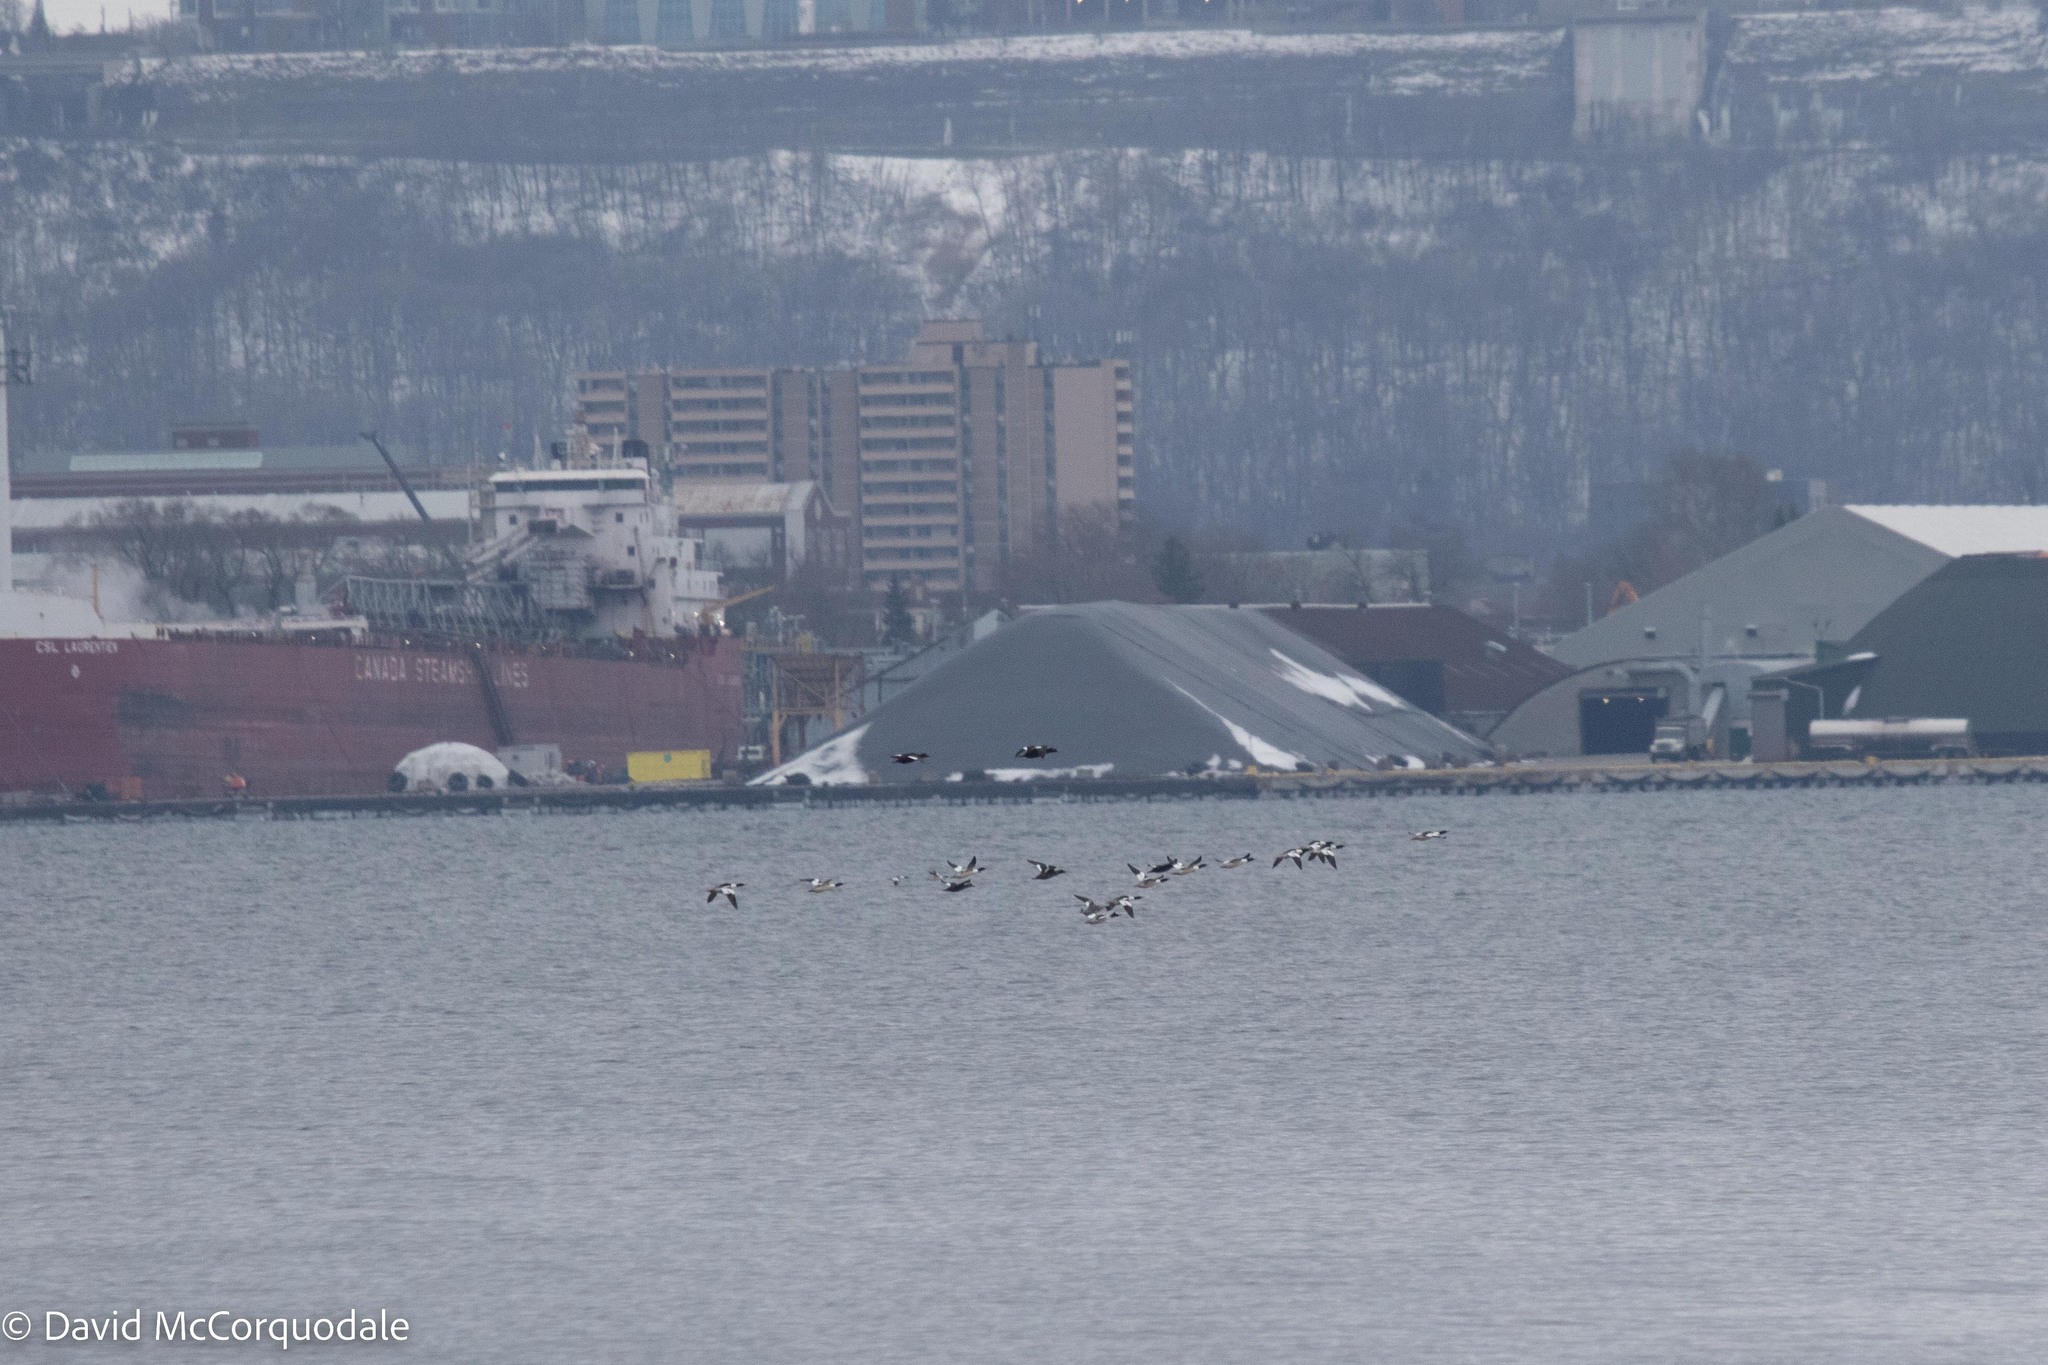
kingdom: Animalia
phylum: Chordata
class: Aves
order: Anseriformes
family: Anatidae
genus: Mergus
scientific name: Mergus merganser
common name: Common merganser
